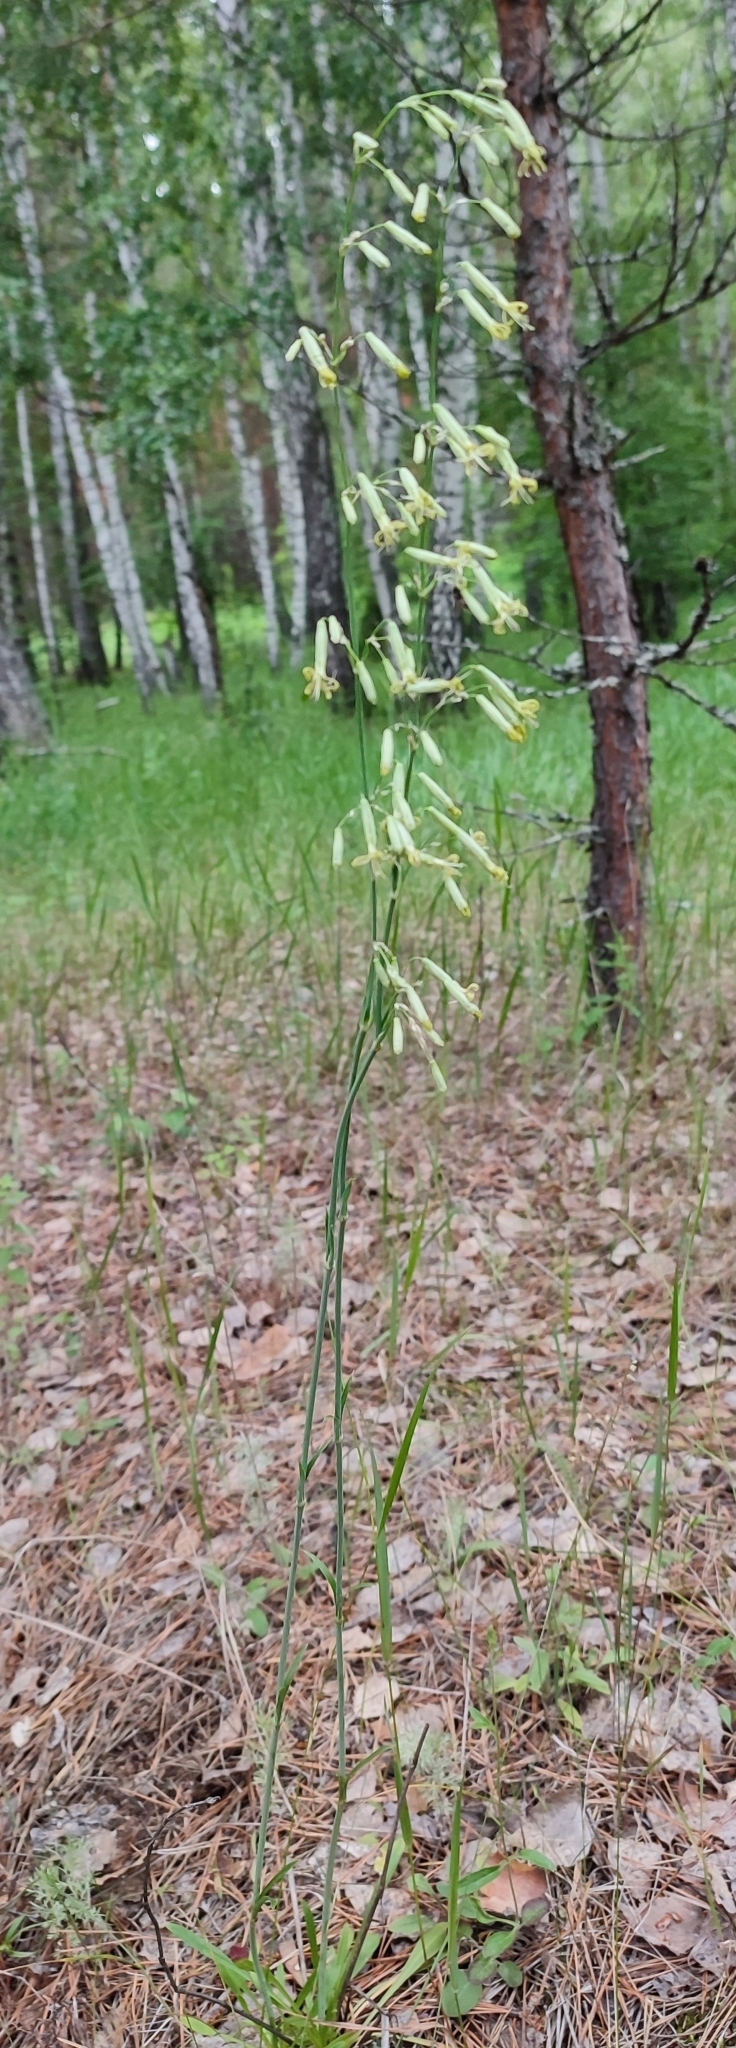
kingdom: Plantae
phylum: Tracheophyta
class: Magnoliopsida
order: Caryophyllales
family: Caryophyllaceae
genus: Silene
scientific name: Silene chlorantha
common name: Yellowgreen catchfly
